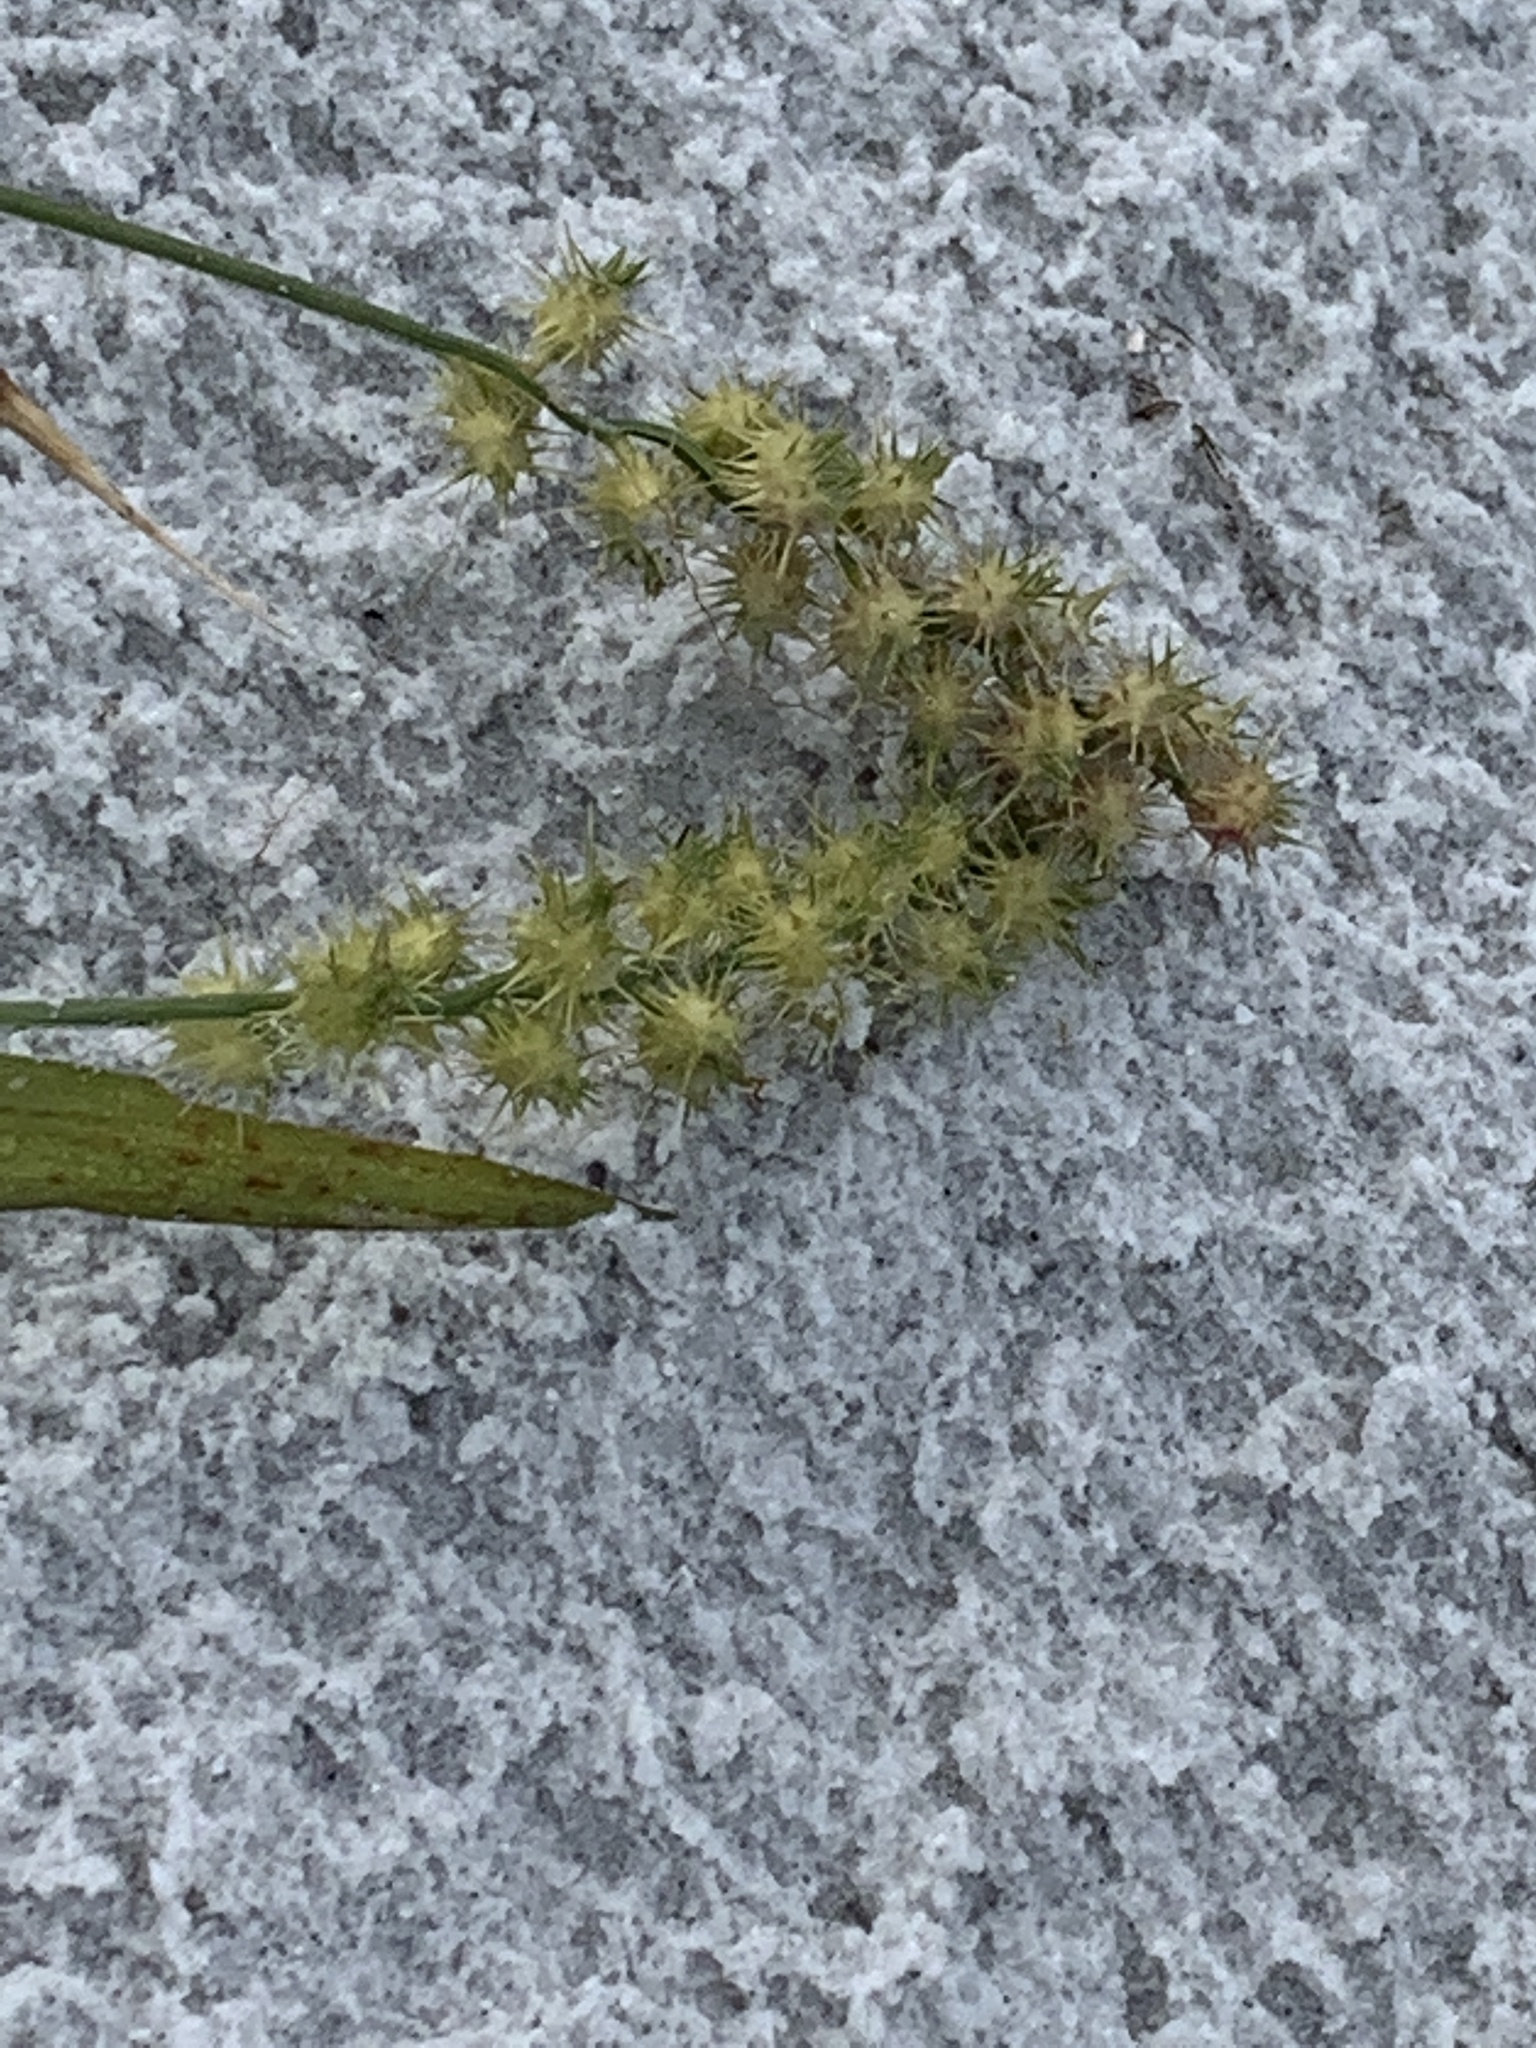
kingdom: Plantae
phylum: Tracheophyta
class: Liliopsida
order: Poales
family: Poaceae
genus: Cenchrus
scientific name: Cenchrus spinifex
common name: Coast sandbur
